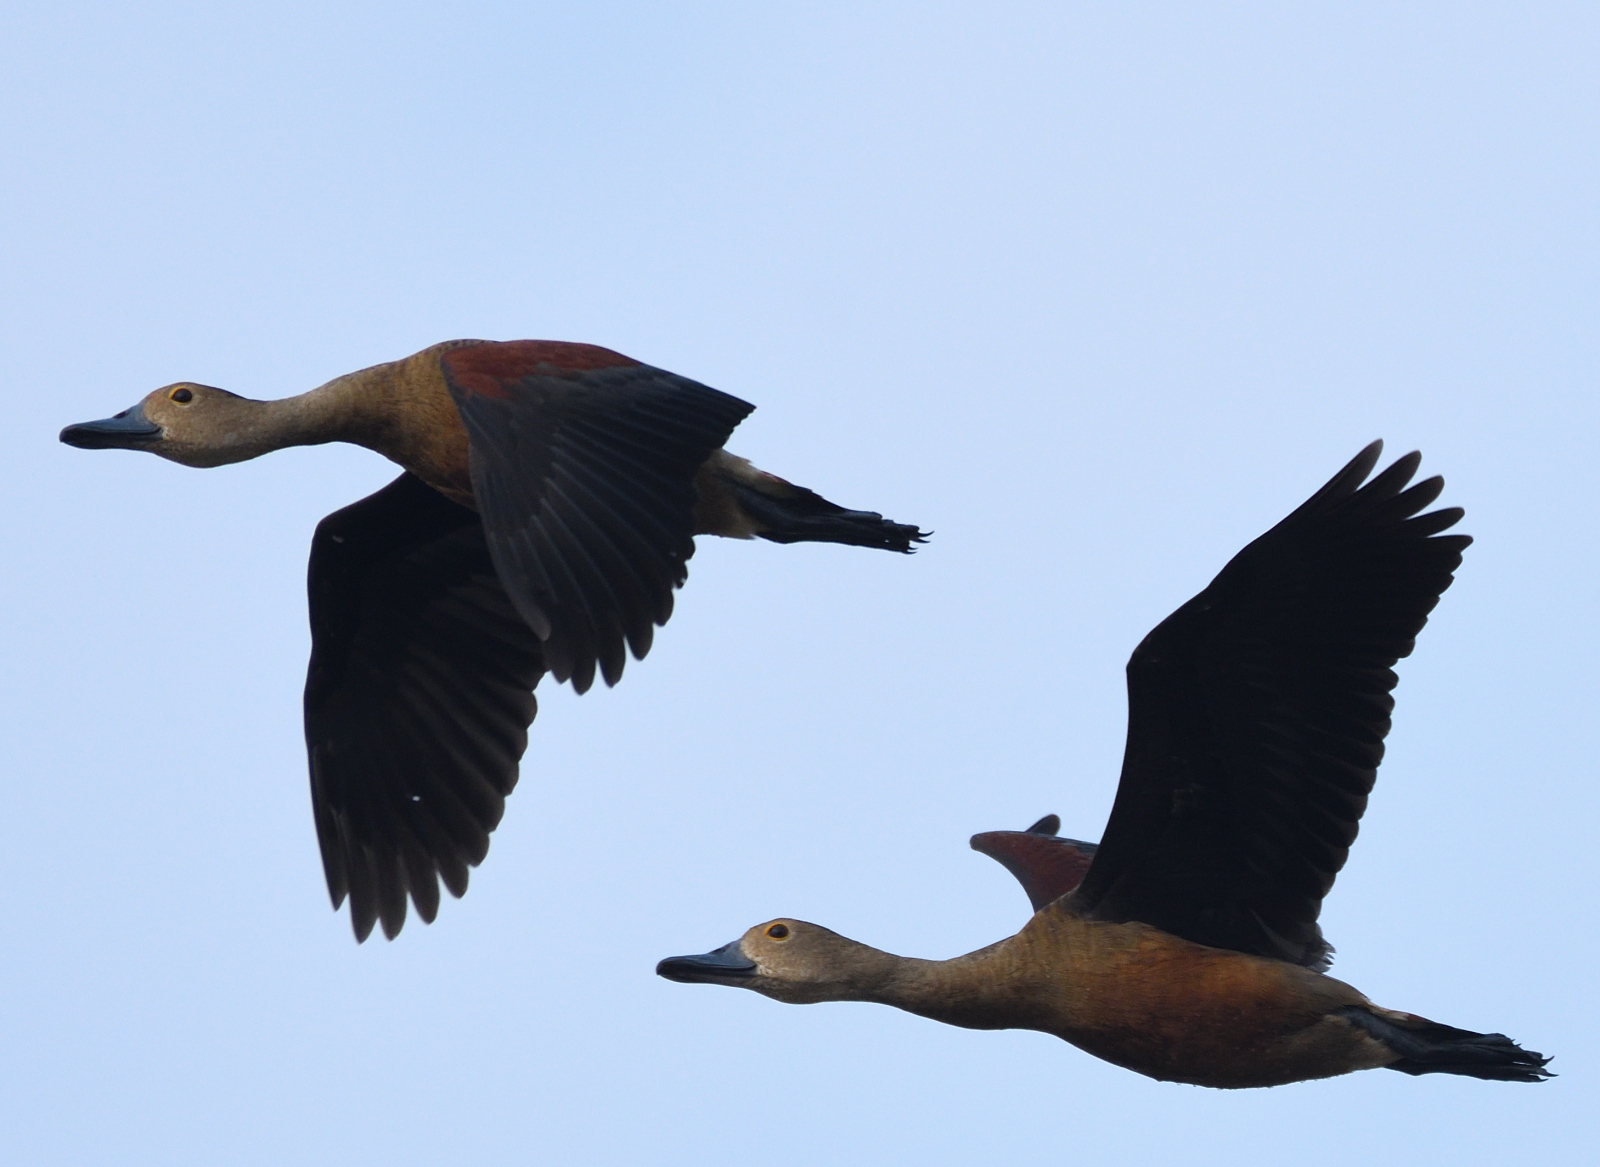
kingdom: Animalia
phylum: Chordata
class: Aves
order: Anseriformes
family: Anatidae
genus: Dendrocygna
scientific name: Dendrocygna javanica
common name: Lesser whistling-duck
